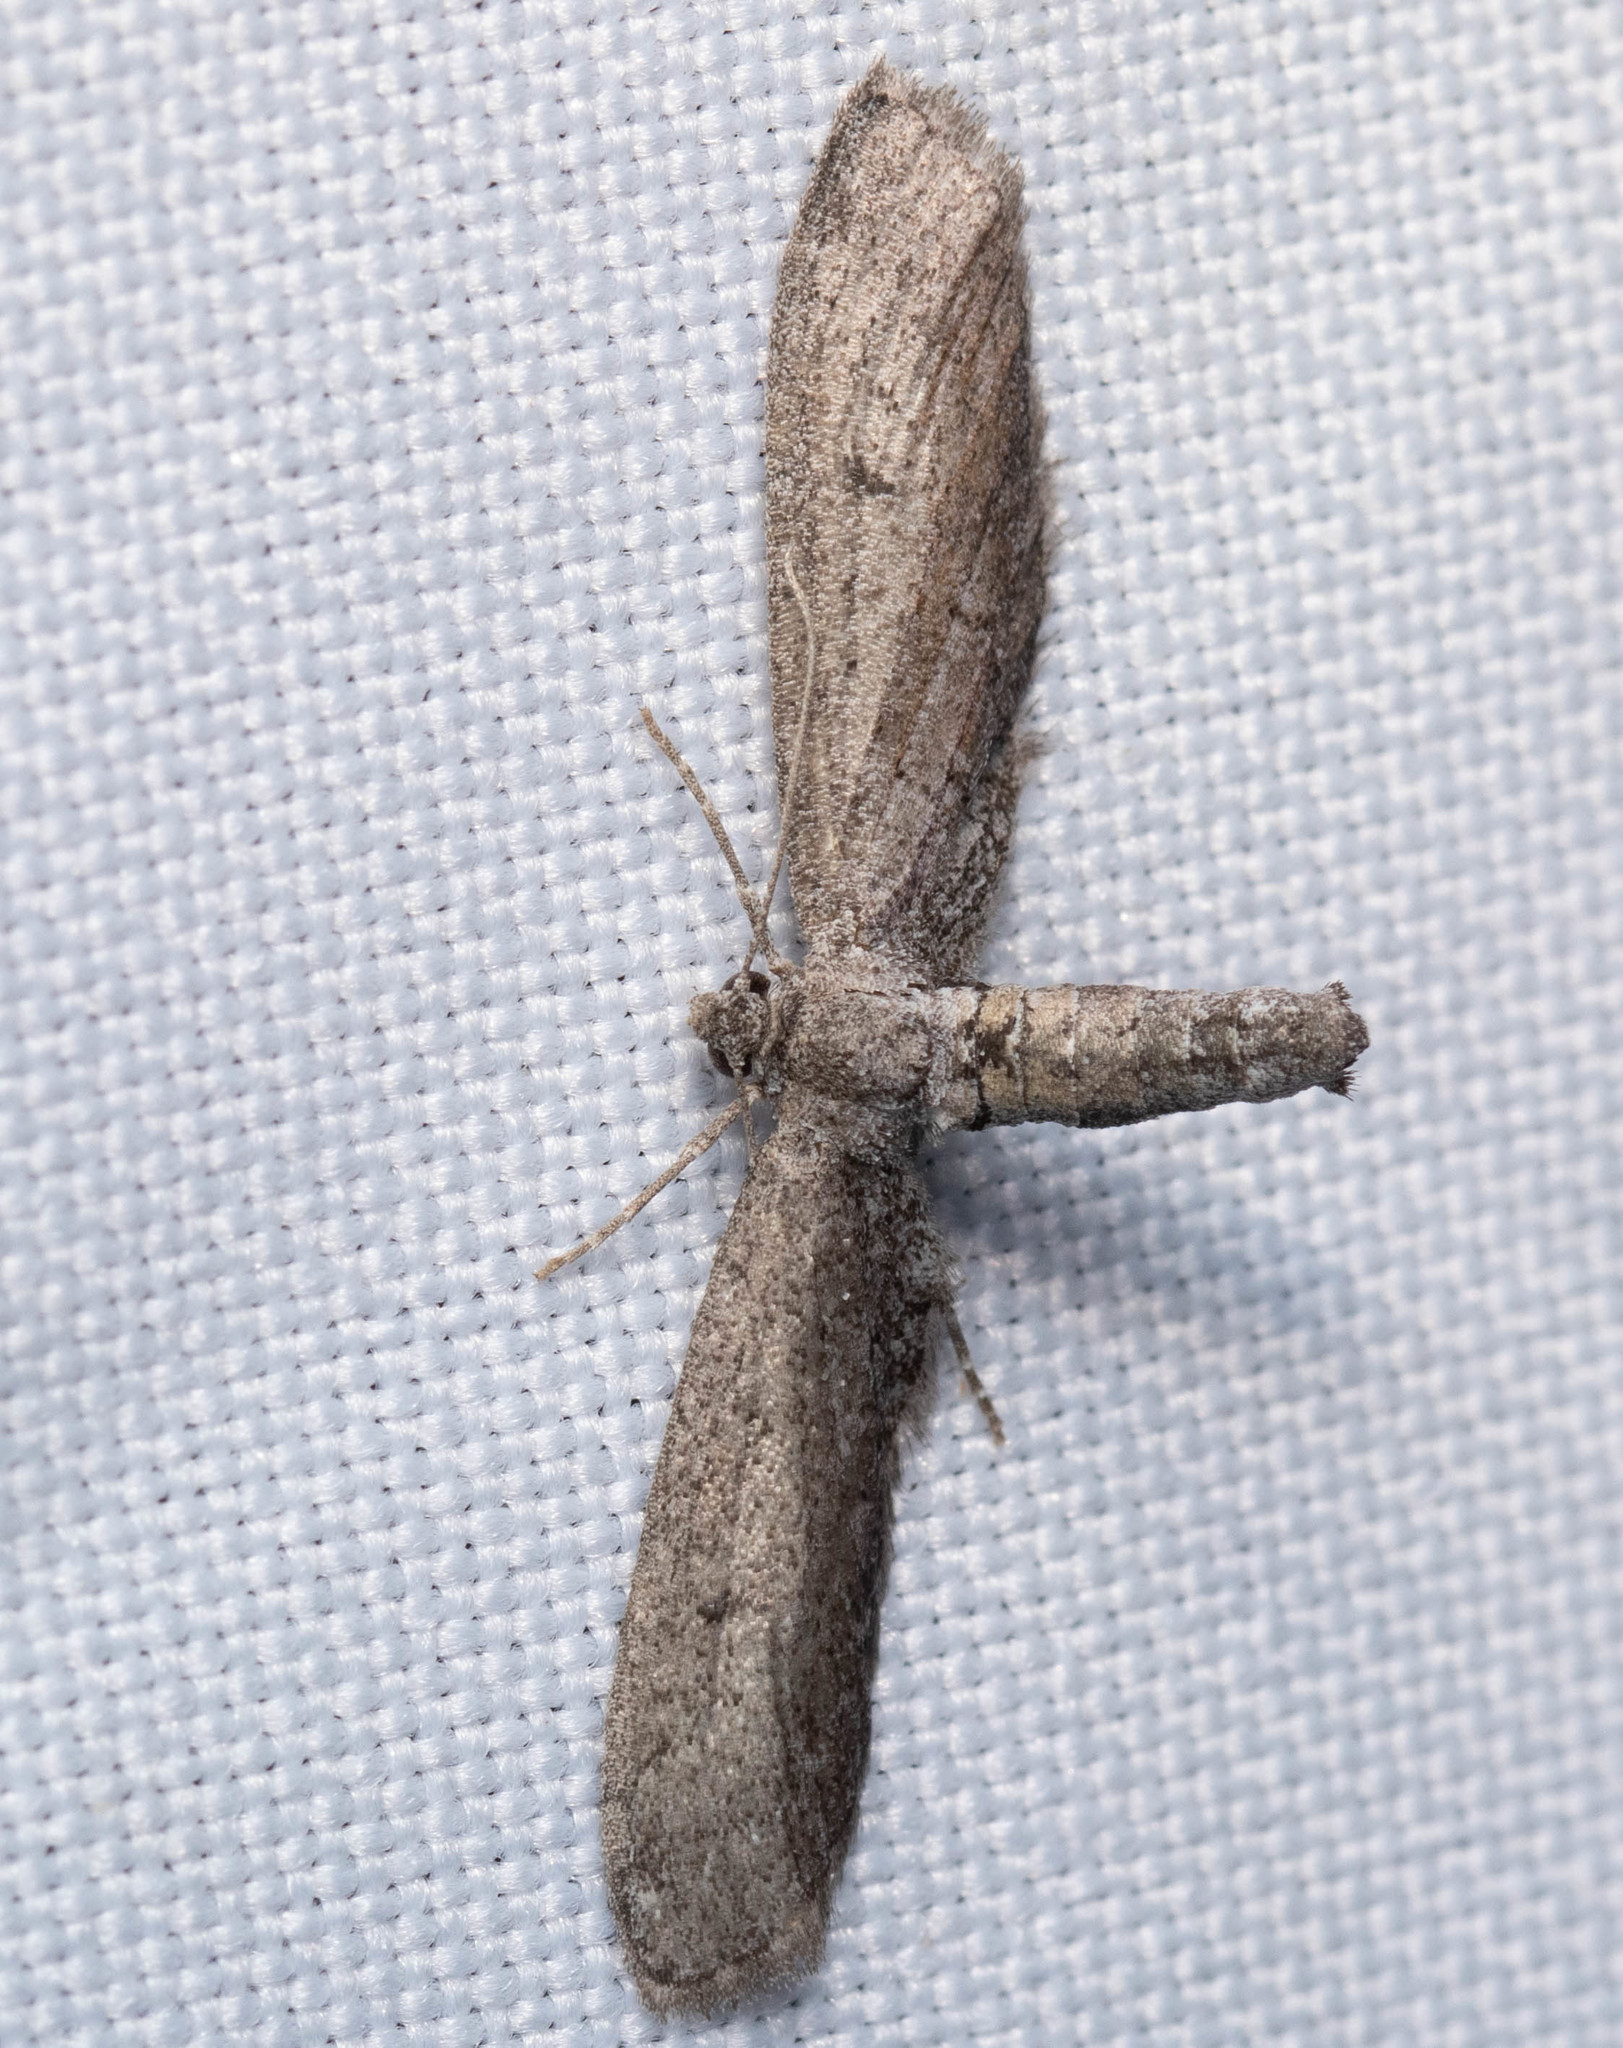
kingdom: Animalia
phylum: Arthropoda
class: Insecta
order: Lepidoptera
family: Geometridae
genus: Glaucina
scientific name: Glaucina erroraria
